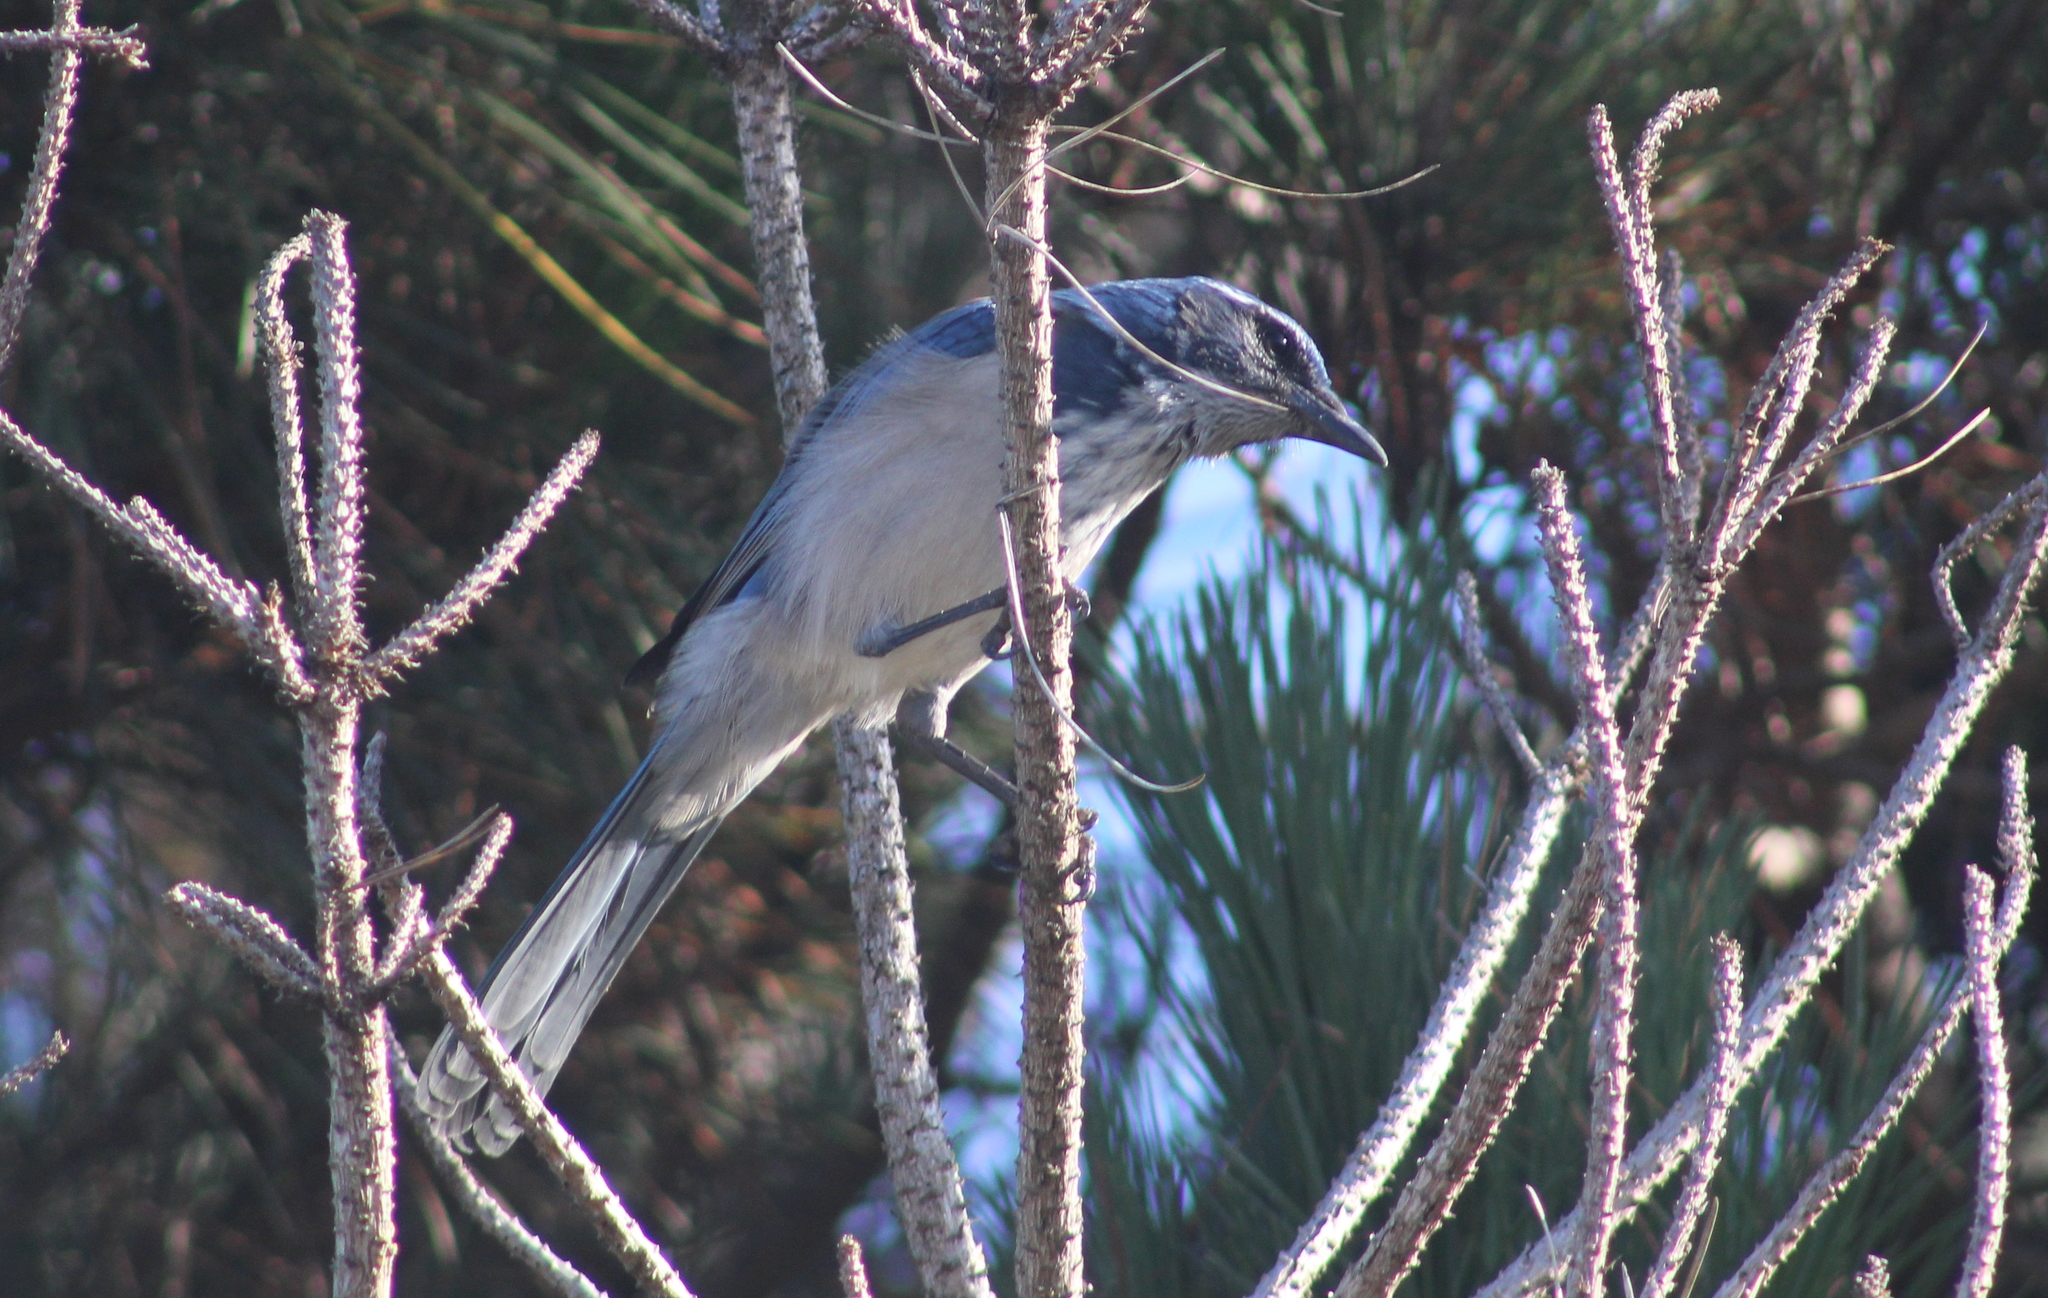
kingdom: Animalia
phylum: Chordata
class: Aves
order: Passeriformes
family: Corvidae
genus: Aphelocoma
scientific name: Aphelocoma californica
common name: California scrub-jay
